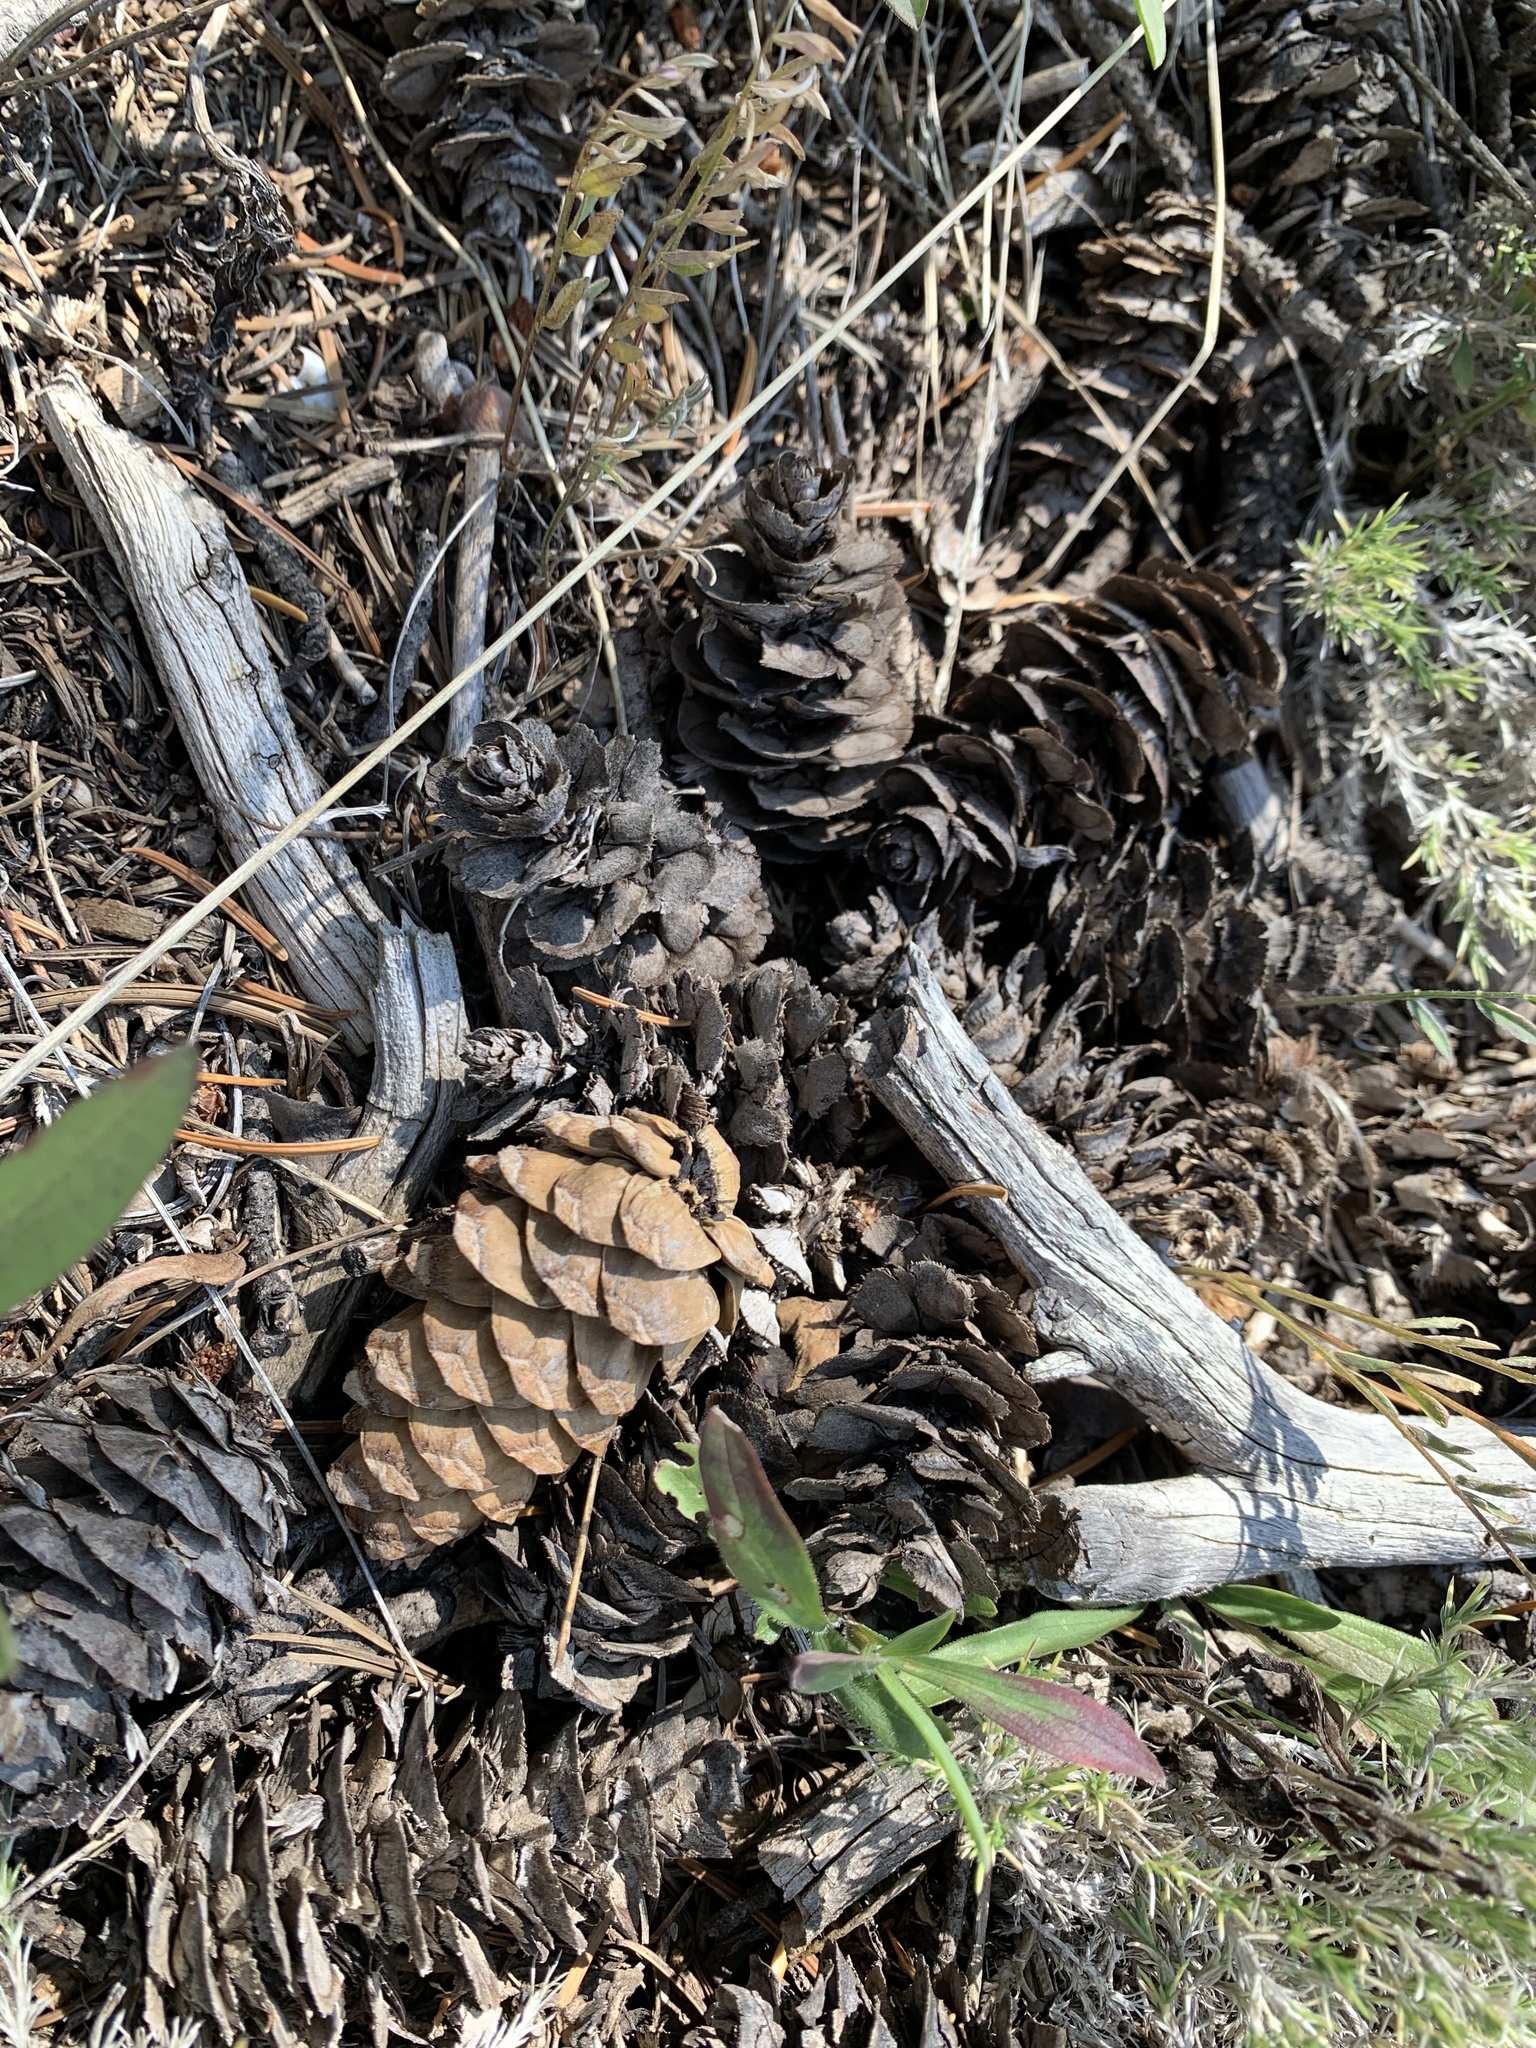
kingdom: Plantae
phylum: Tracheophyta
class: Pinopsida
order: Pinales
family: Pinaceae
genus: Pseudotsuga
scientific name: Pseudotsuga menziesii
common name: Douglas fir
